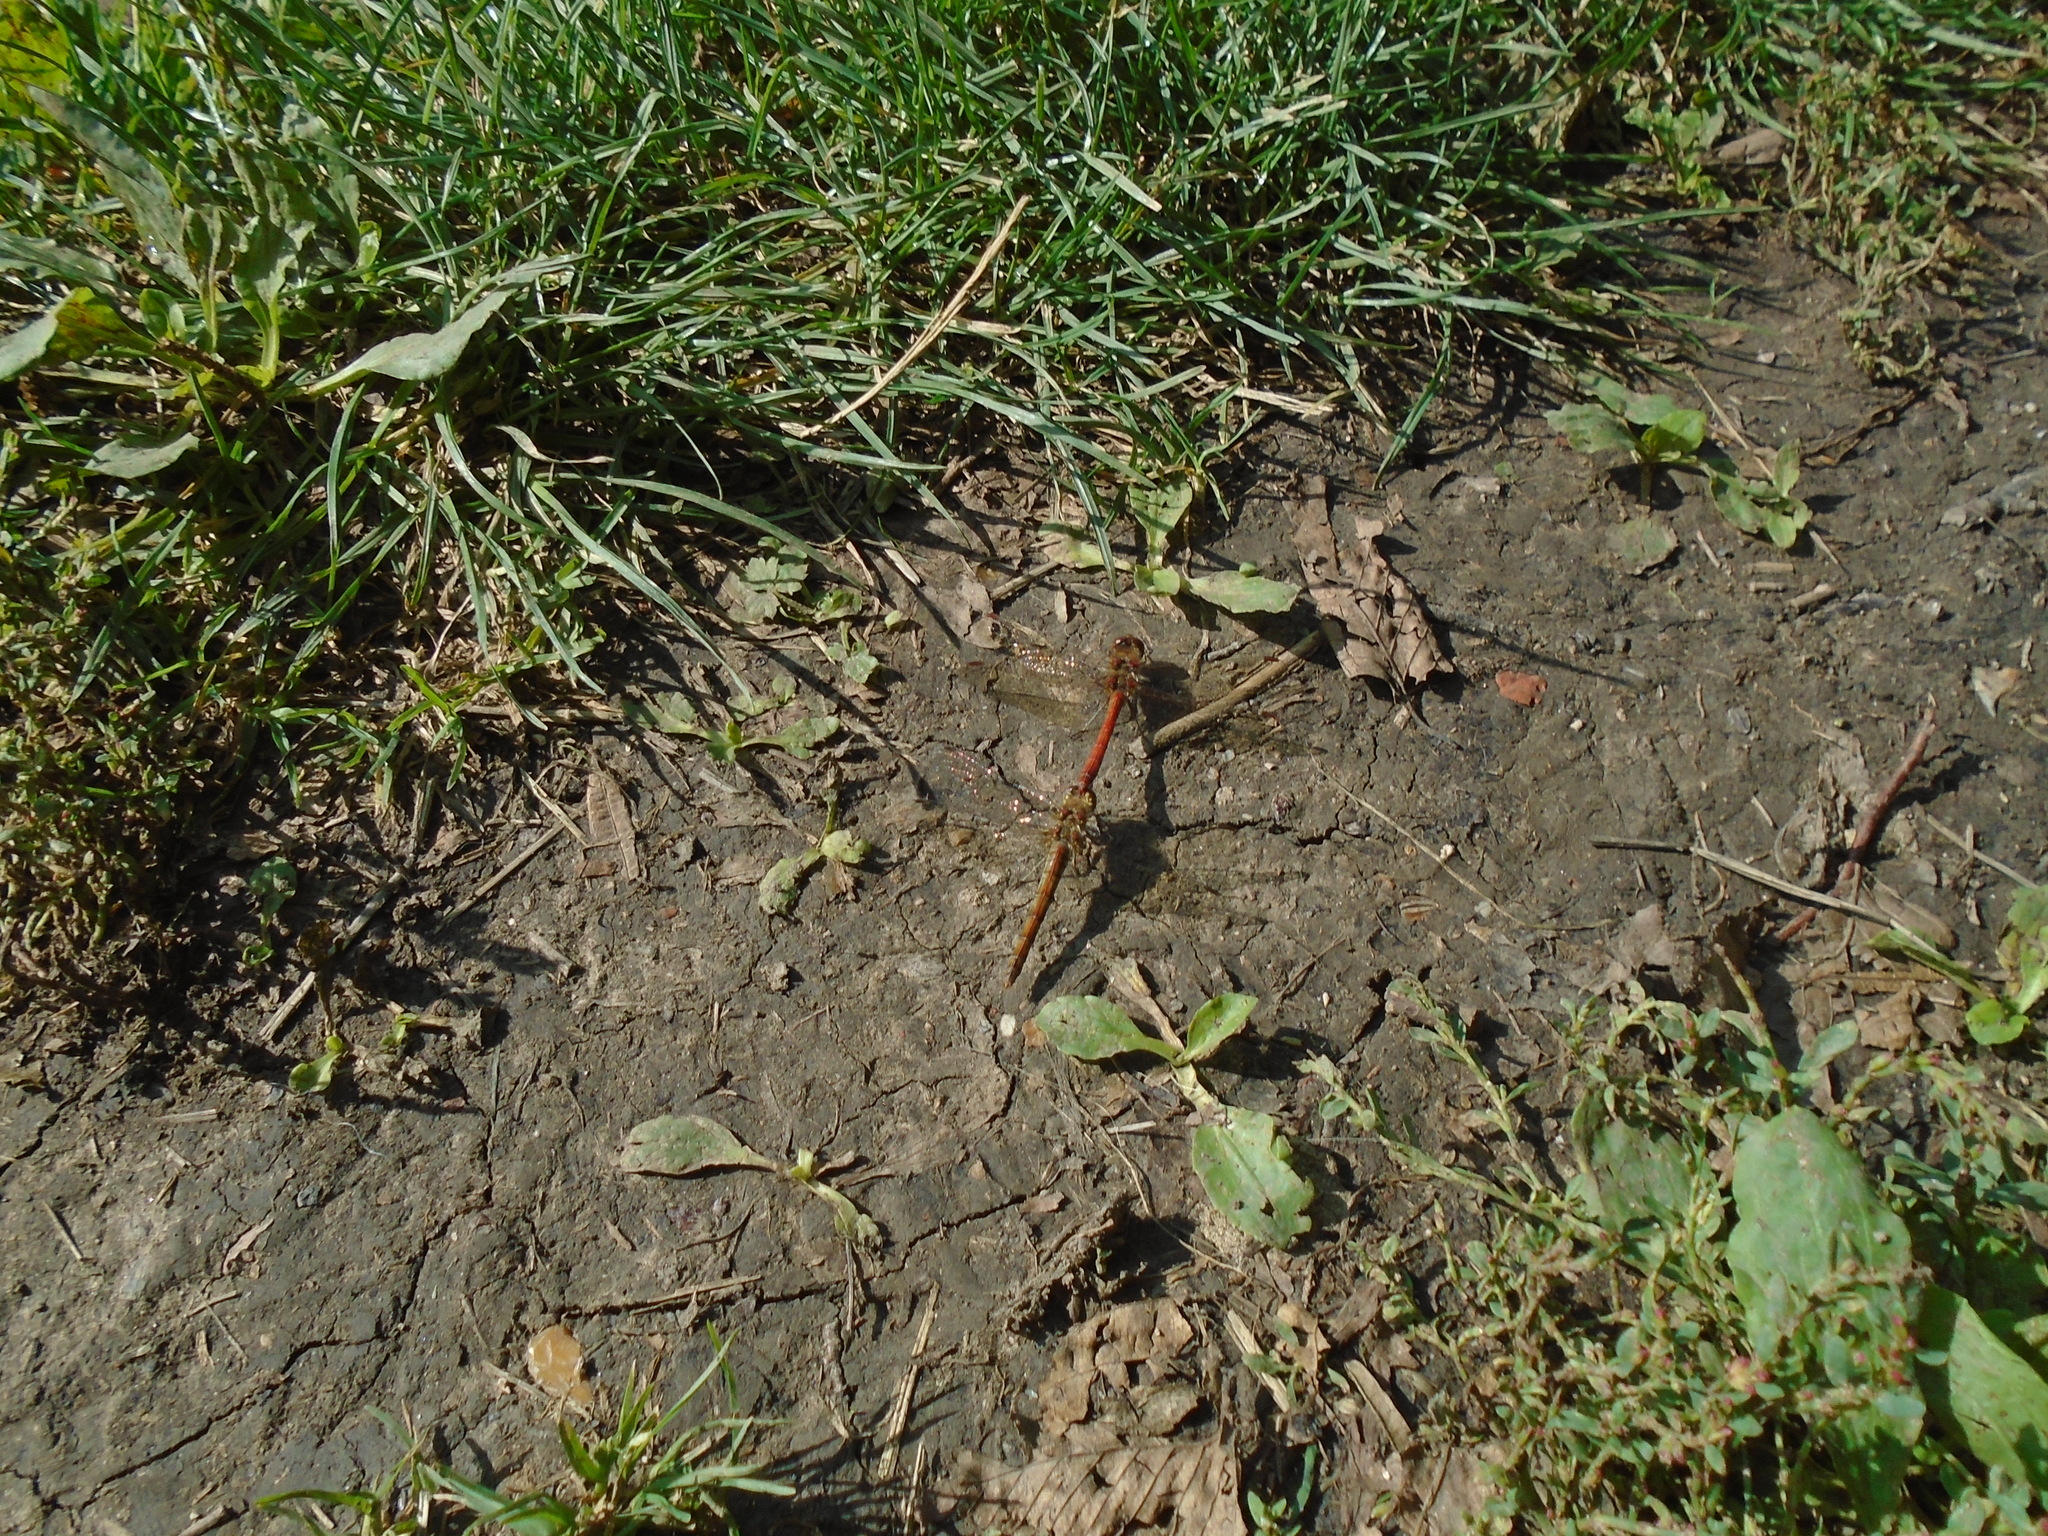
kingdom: Animalia
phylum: Arthropoda
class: Insecta
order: Odonata
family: Libellulidae
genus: Sympetrum
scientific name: Sympetrum striolatum
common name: Common darter
